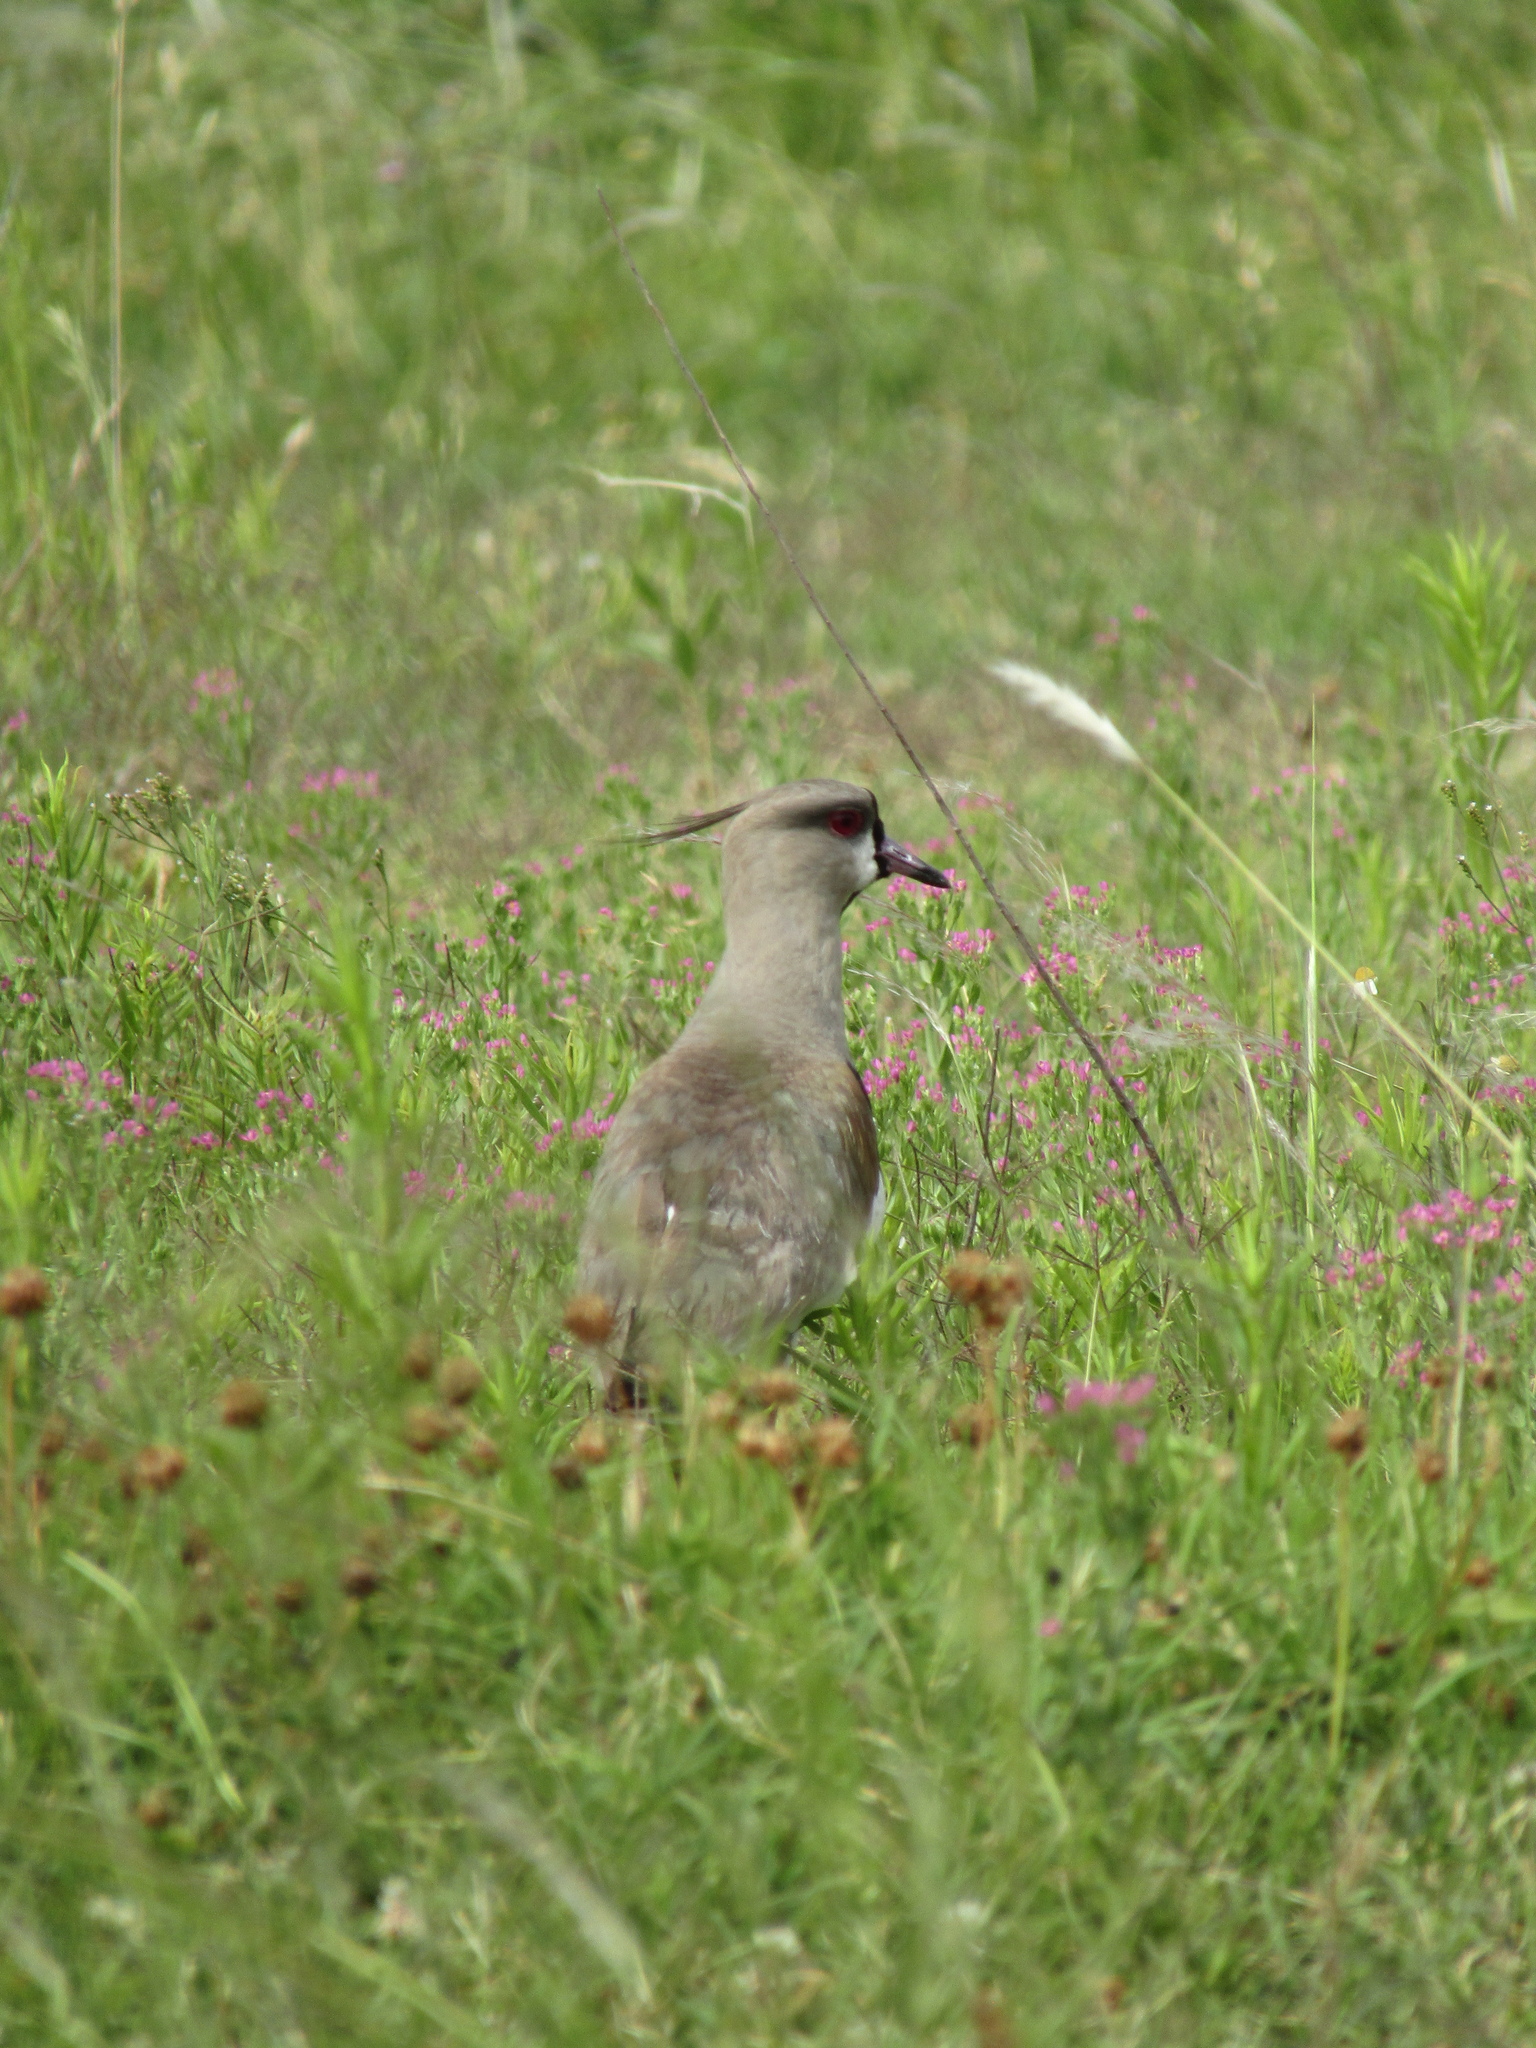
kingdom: Animalia
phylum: Chordata
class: Aves
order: Charadriiformes
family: Charadriidae
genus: Vanellus
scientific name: Vanellus chilensis
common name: Southern lapwing
